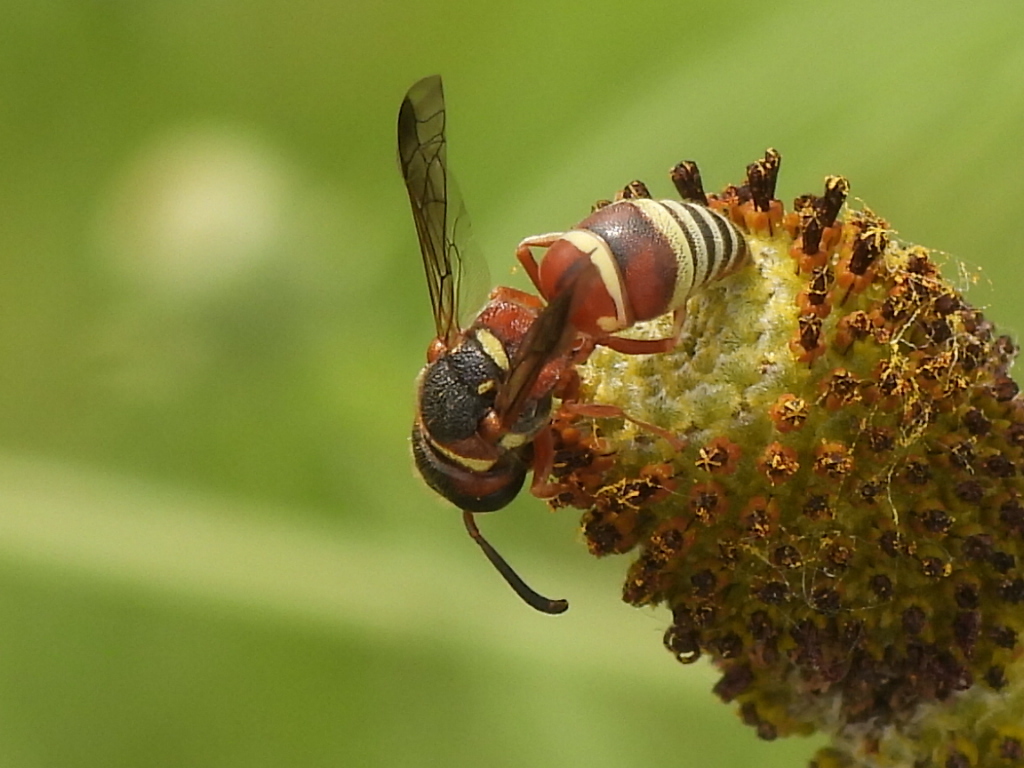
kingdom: Animalia
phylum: Arthropoda
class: Insecta
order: Hymenoptera
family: Eumenidae
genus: Euodynerus
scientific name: Euodynerus annulatus
